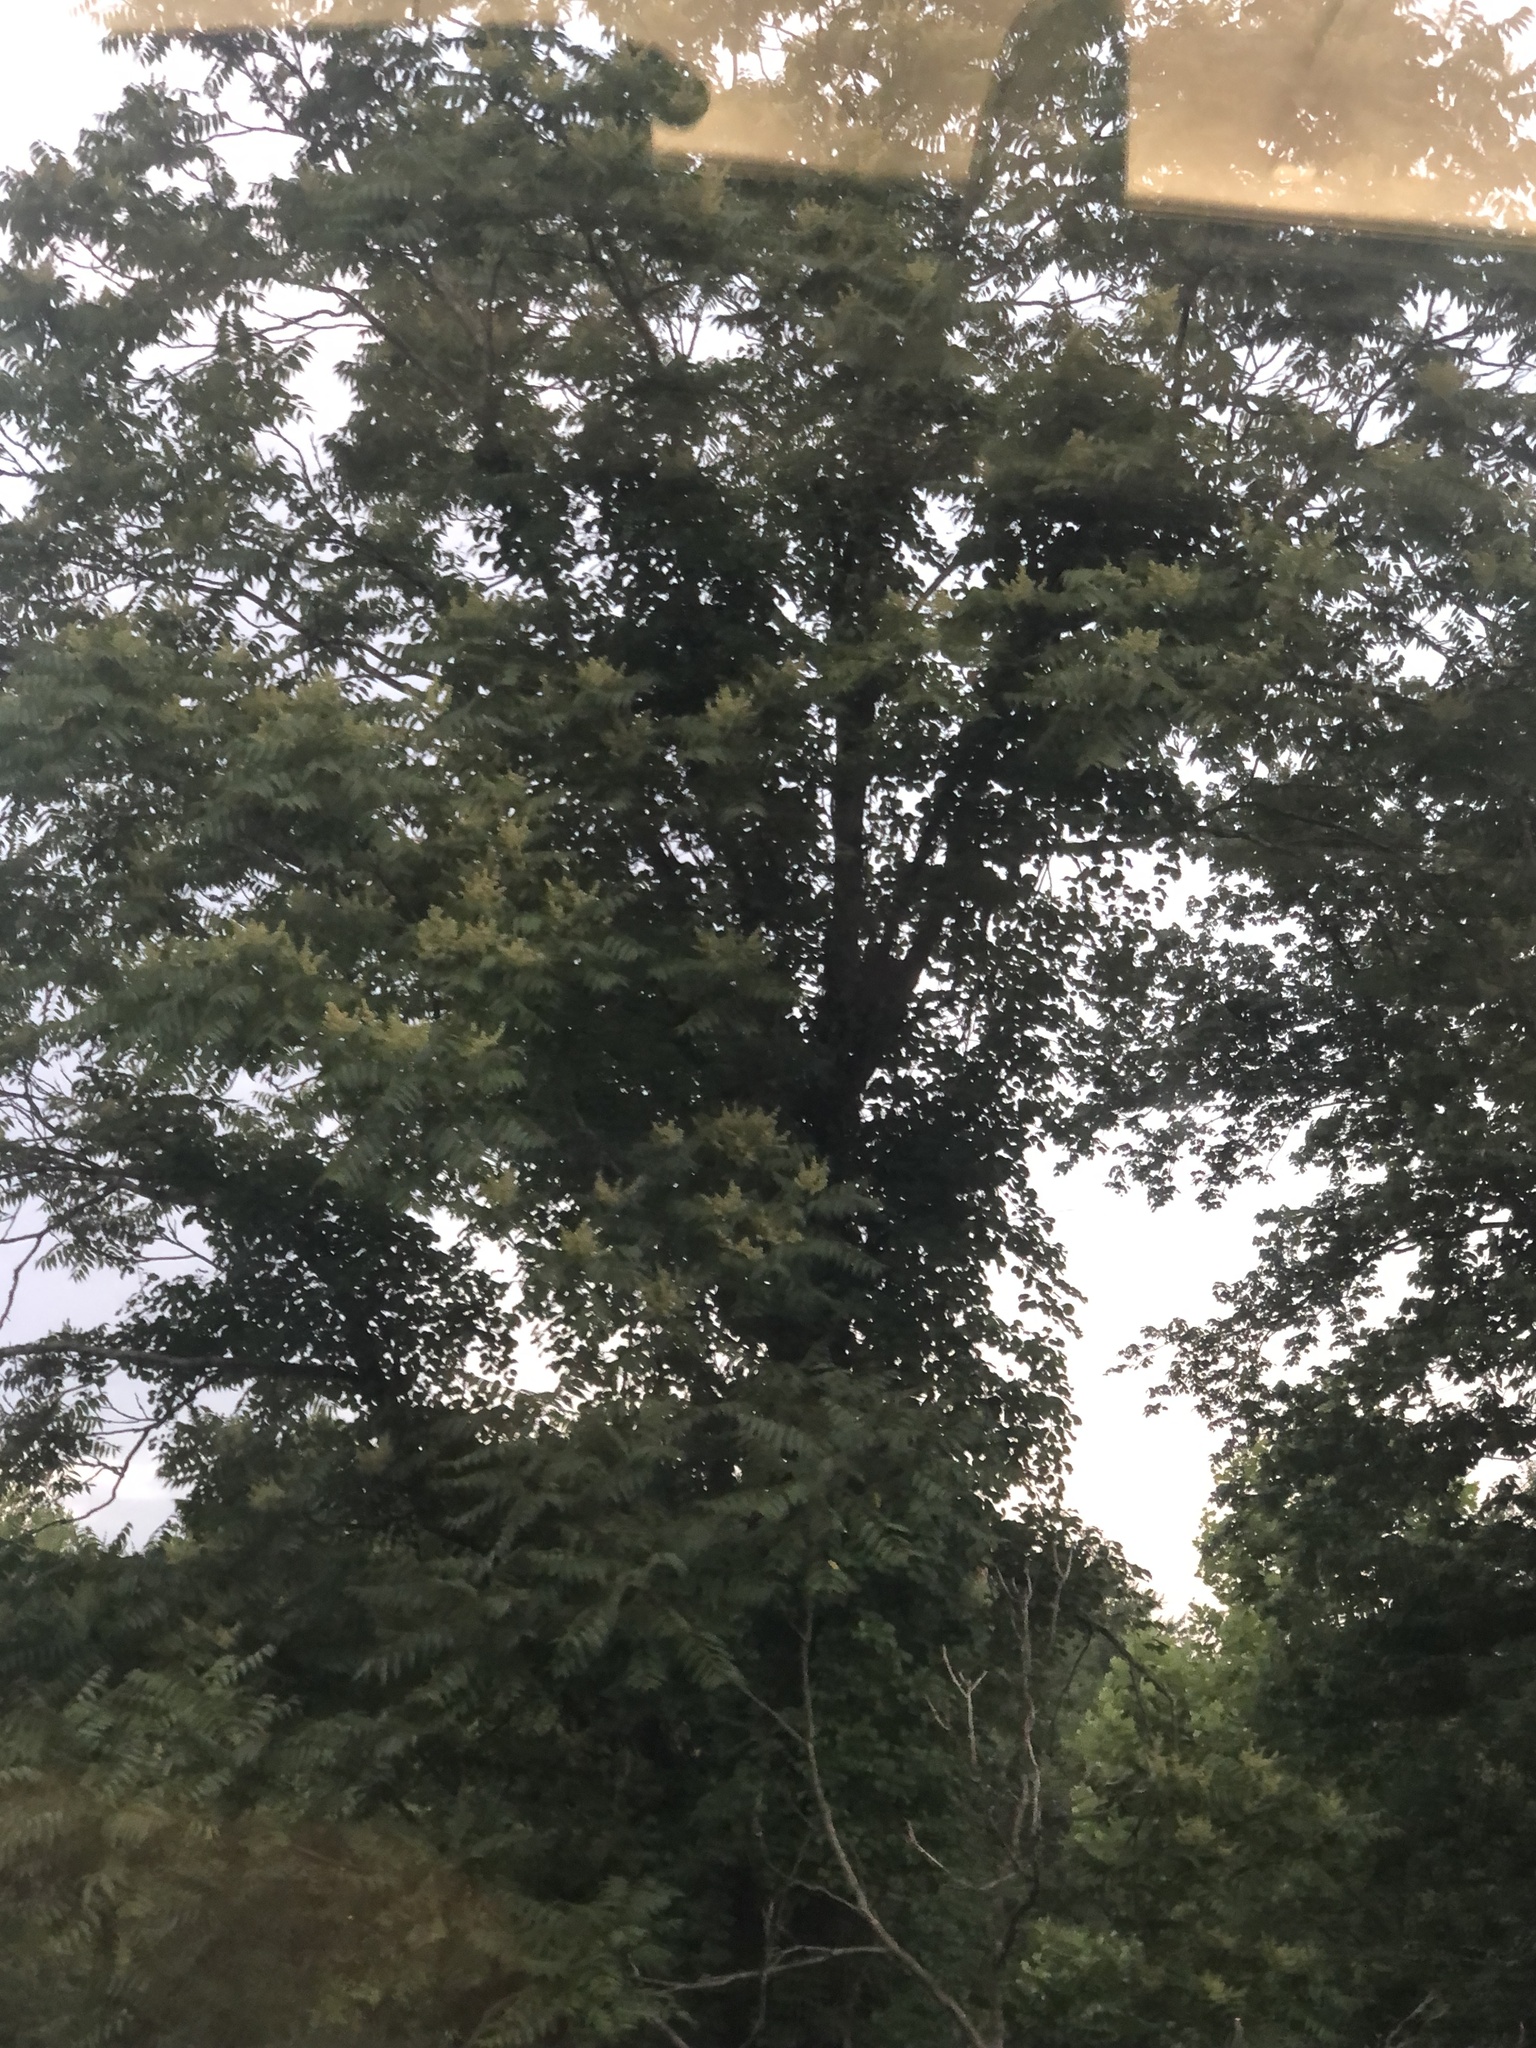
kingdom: Plantae
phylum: Tracheophyta
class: Magnoliopsida
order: Sapindales
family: Simaroubaceae
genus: Ailanthus
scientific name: Ailanthus altissima
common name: Tree-of-heaven
